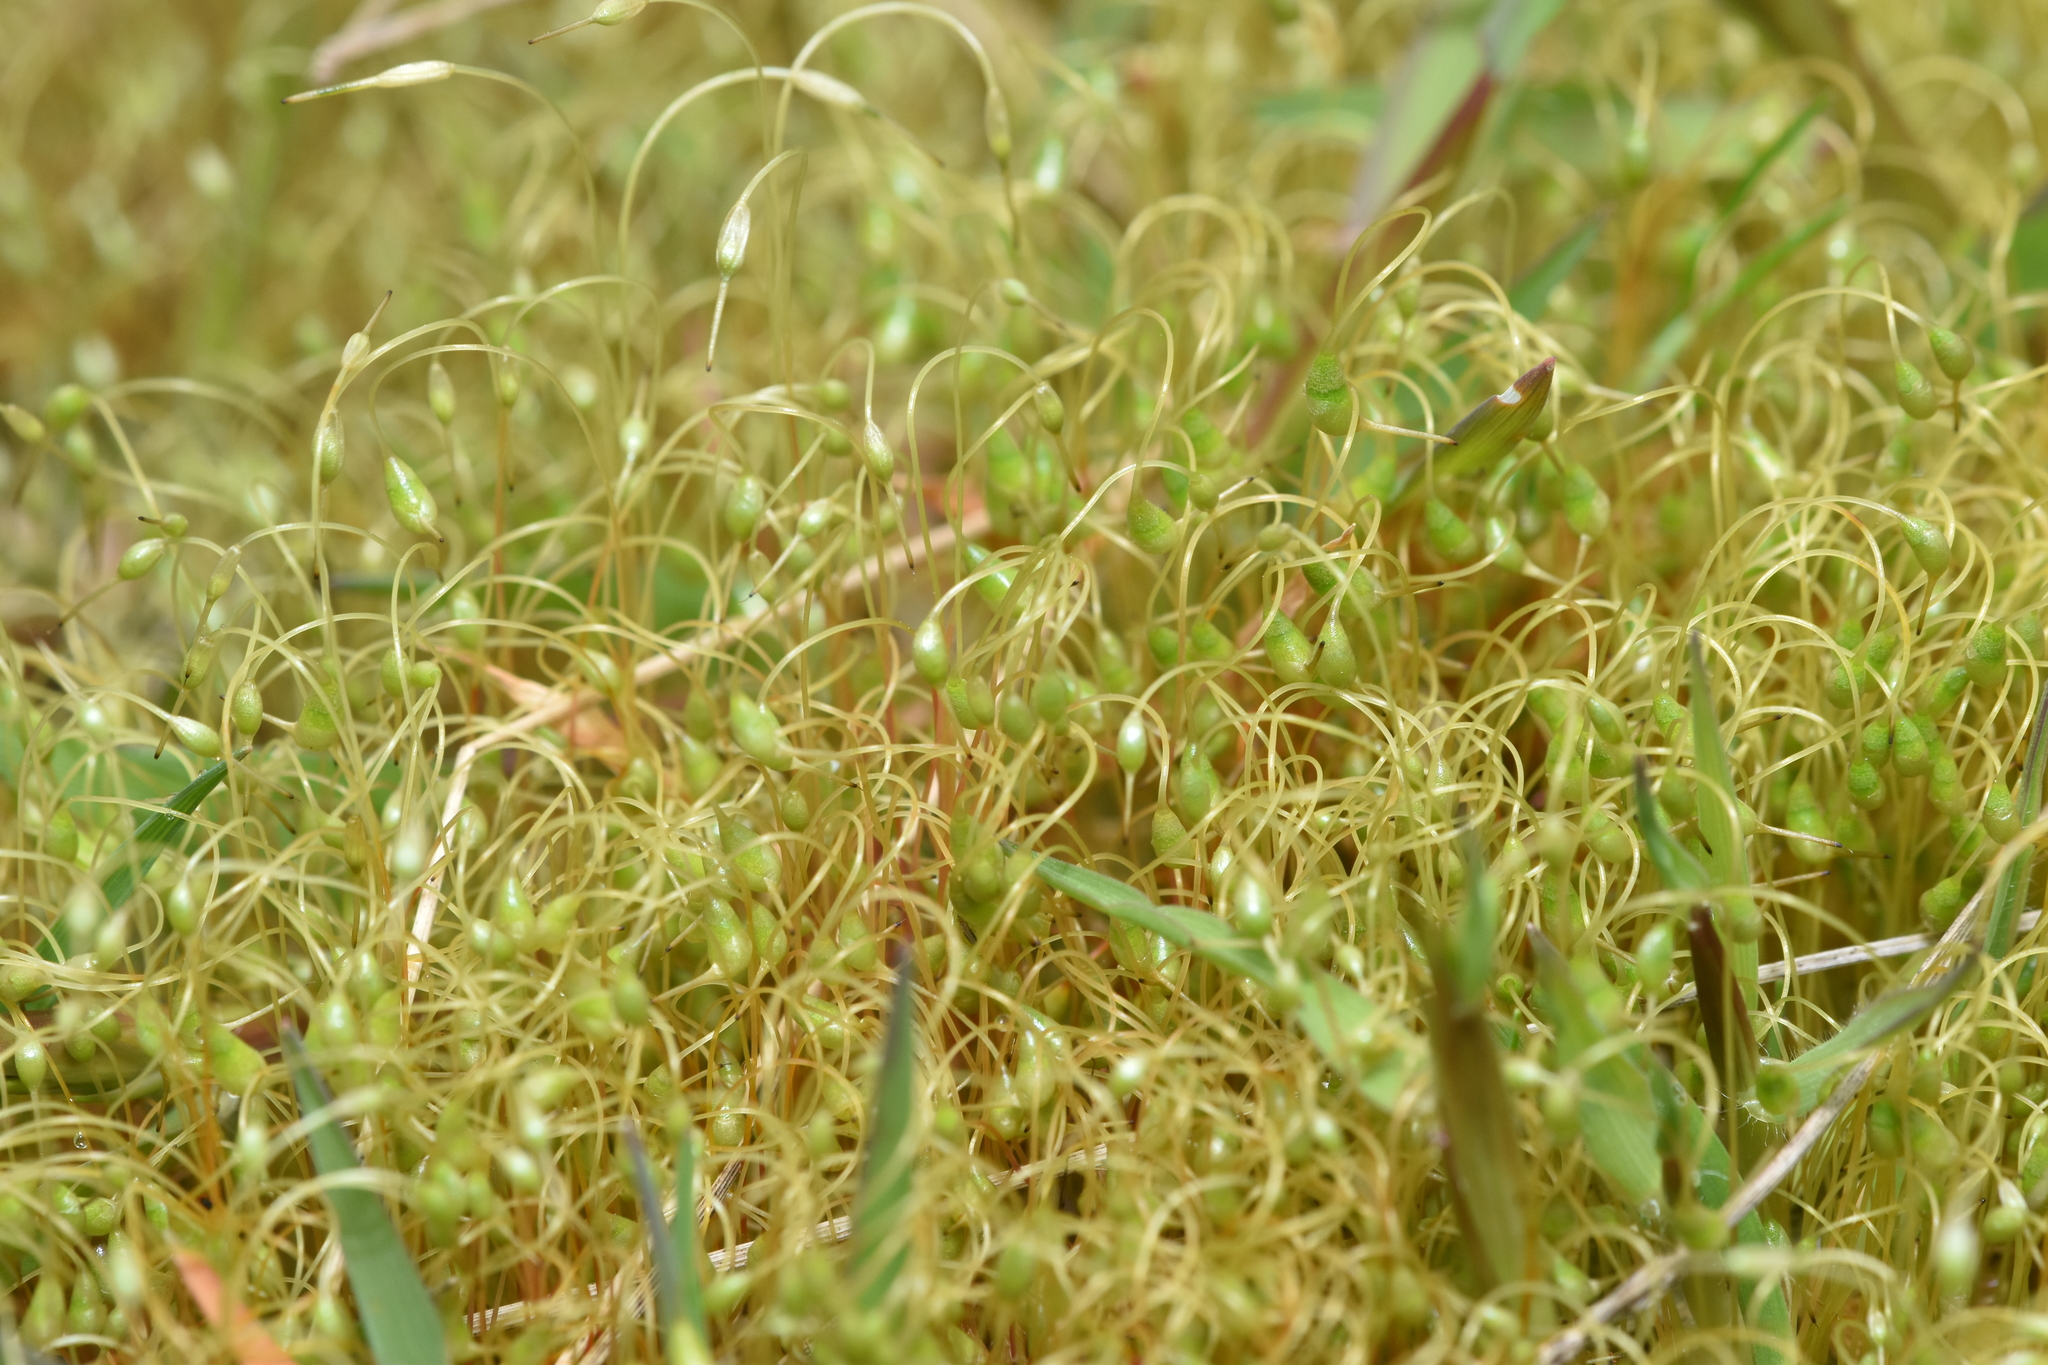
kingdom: Plantae
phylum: Bryophyta
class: Bryopsida
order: Funariales
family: Funariaceae
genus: Funaria
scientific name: Funaria hygrometrica
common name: Common cord moss
